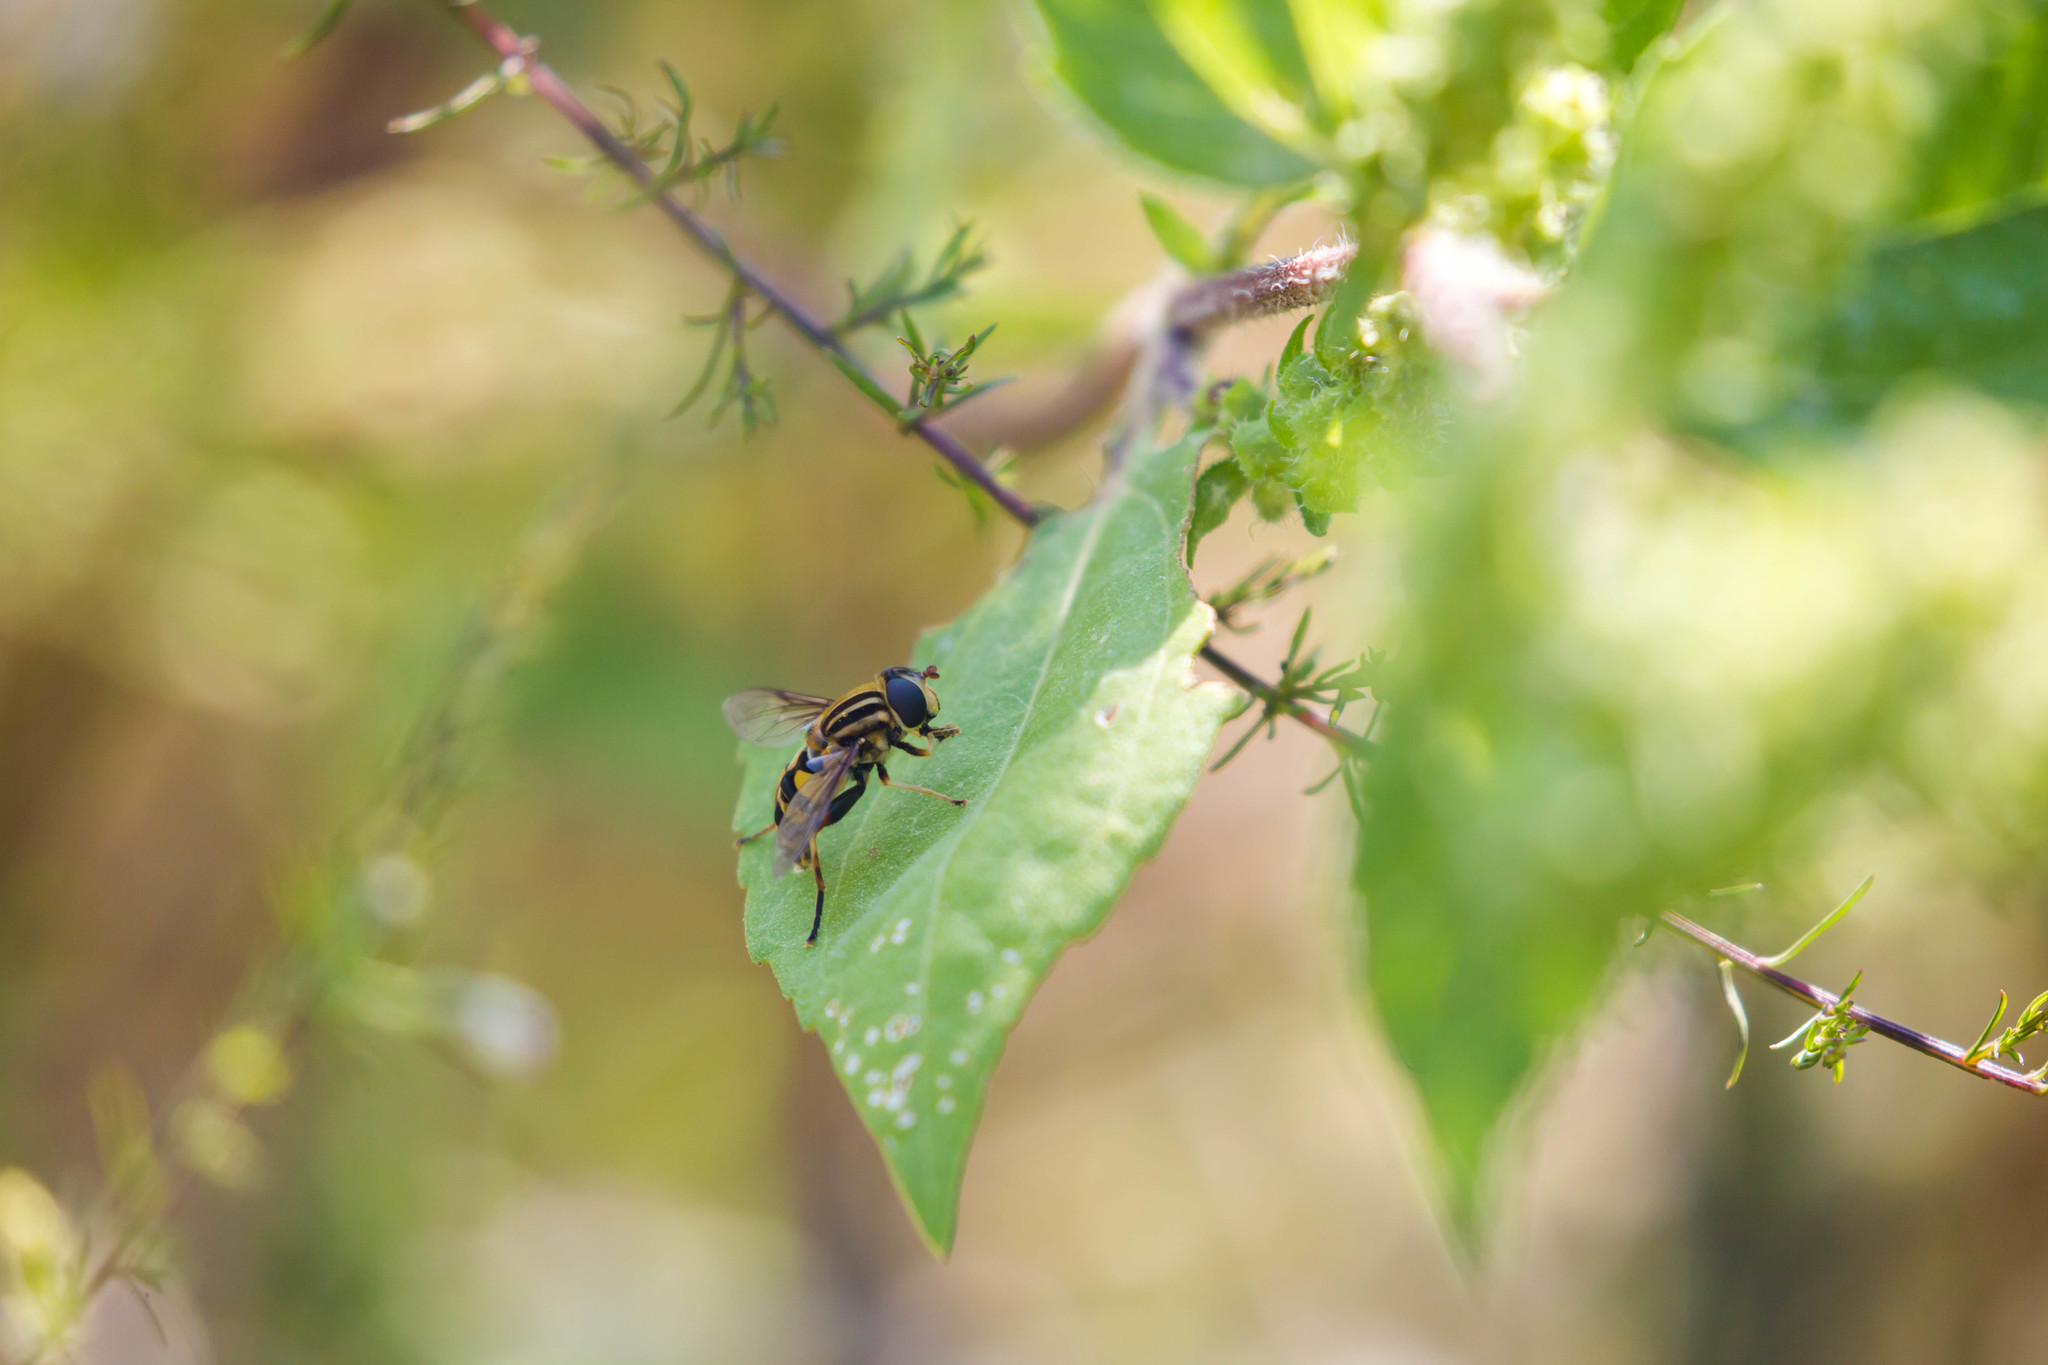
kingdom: Animalia
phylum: Arthropoda
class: Insecta
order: Diptera
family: Syrphidae
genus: Helophilus
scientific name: Helophilus fasciatus
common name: Narrow-headed marsh fly
